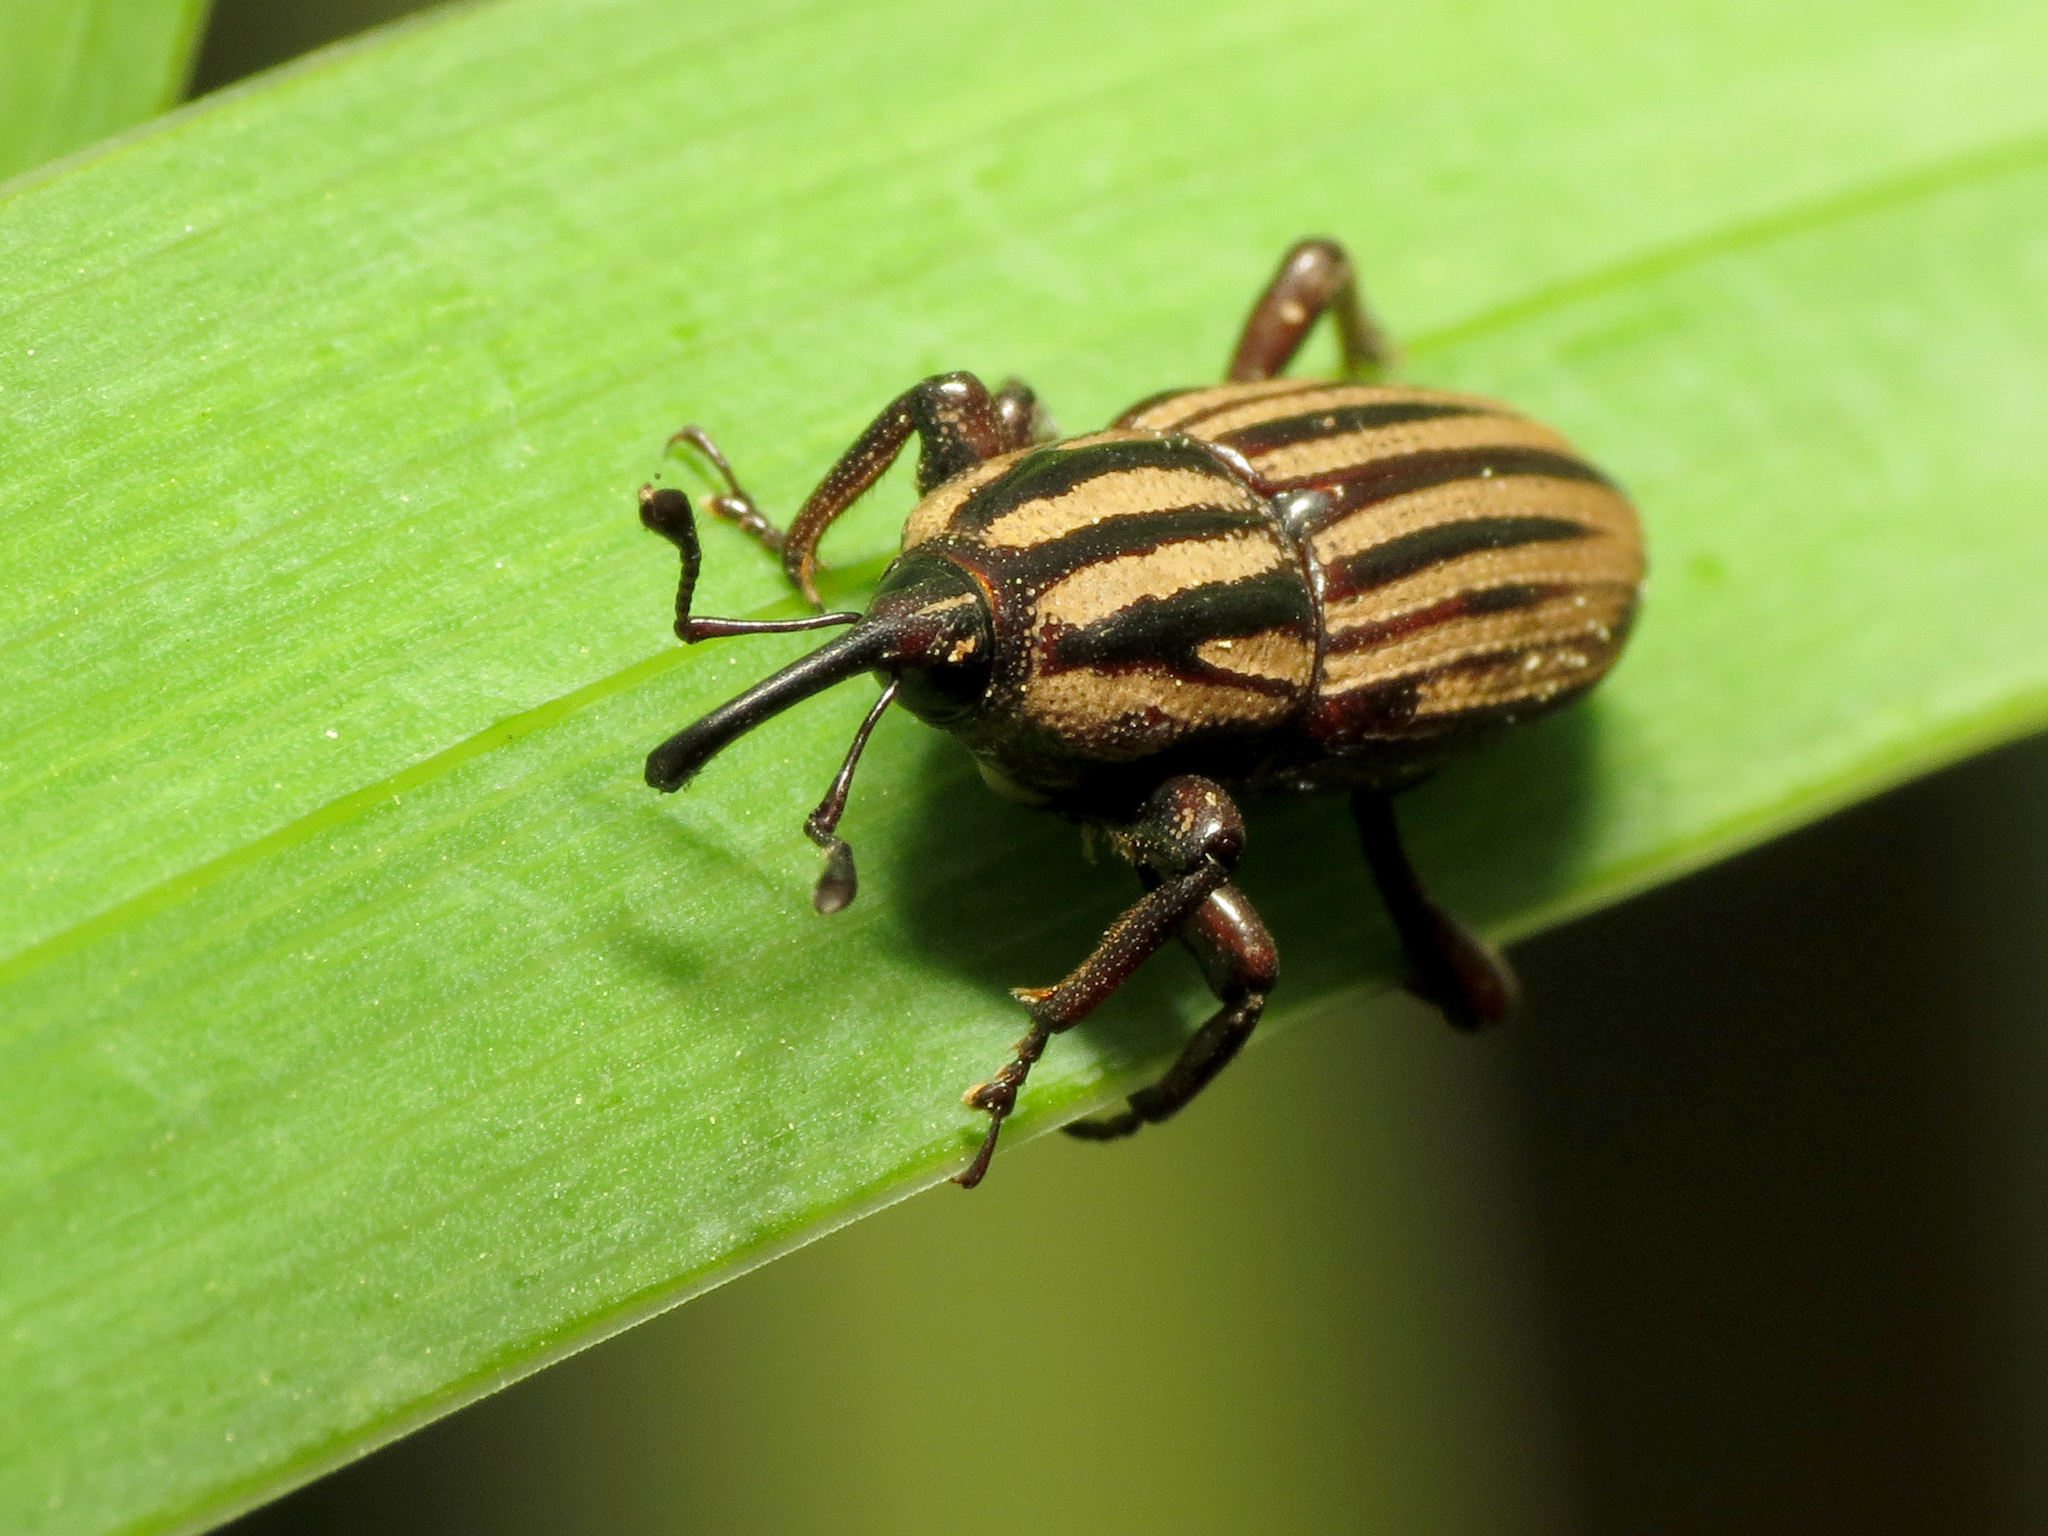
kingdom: Animalia
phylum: Arthropoda
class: Insecta
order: Coleoptera
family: Dryophthoridae
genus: Sphenophorus
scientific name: Sphenophorus villosiventris
